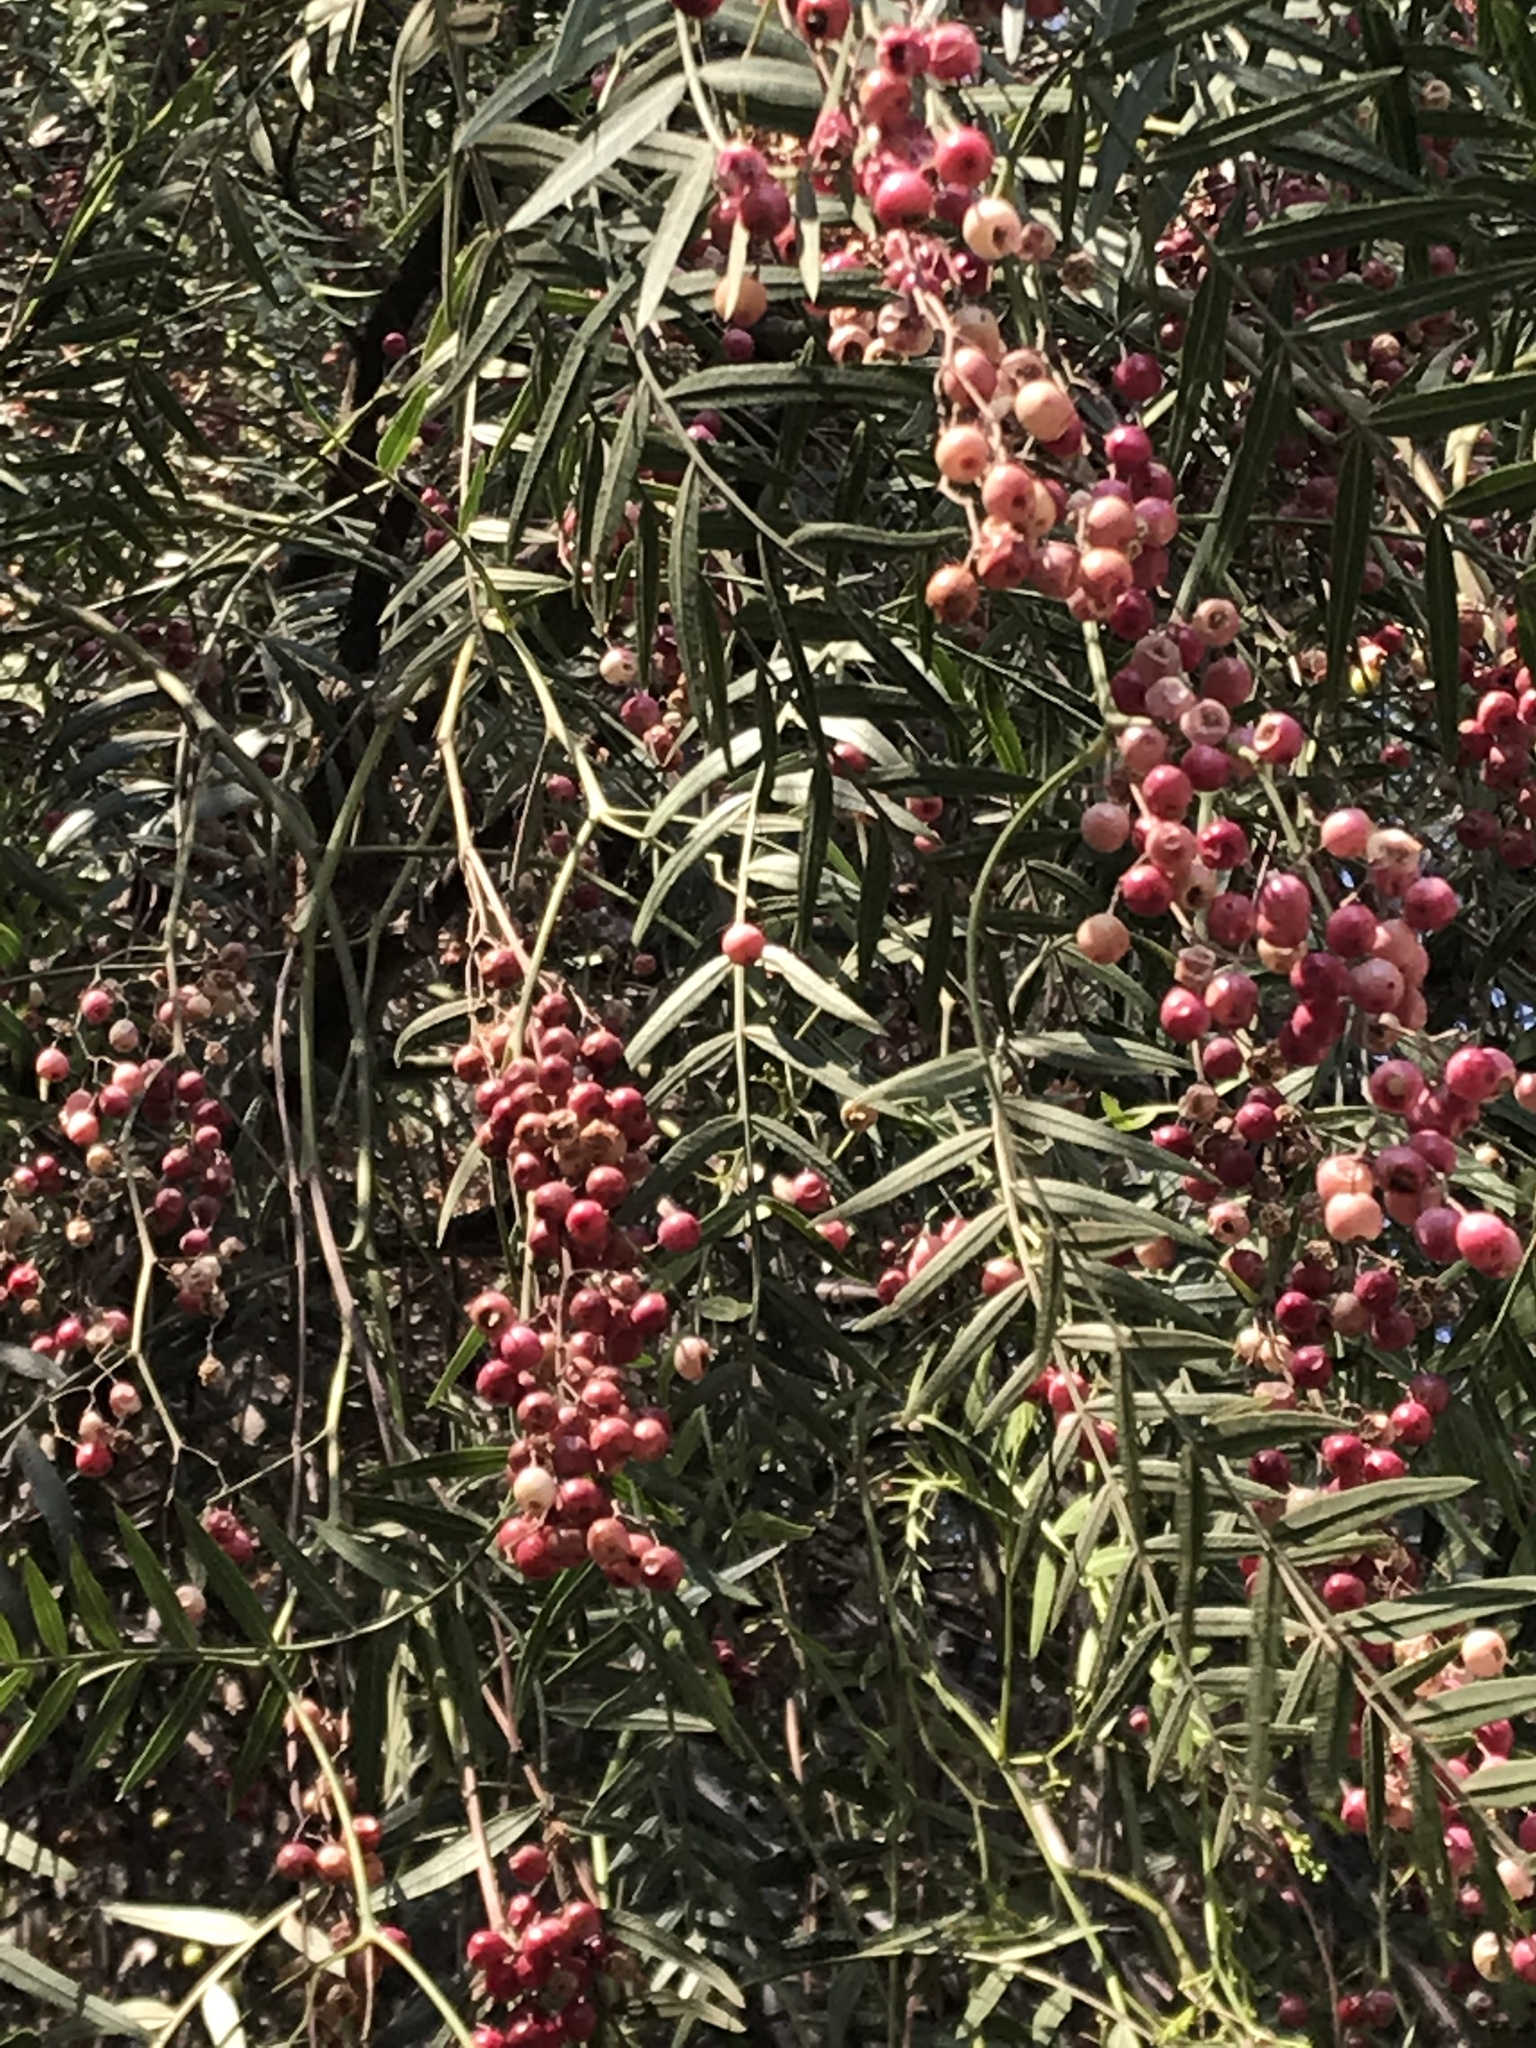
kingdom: Plantae
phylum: Tracheophyta
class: Magnoliopsida
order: Sapindales
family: Anacardiaceae
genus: Schinus
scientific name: Schinus molle
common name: Peruvian peppertree
